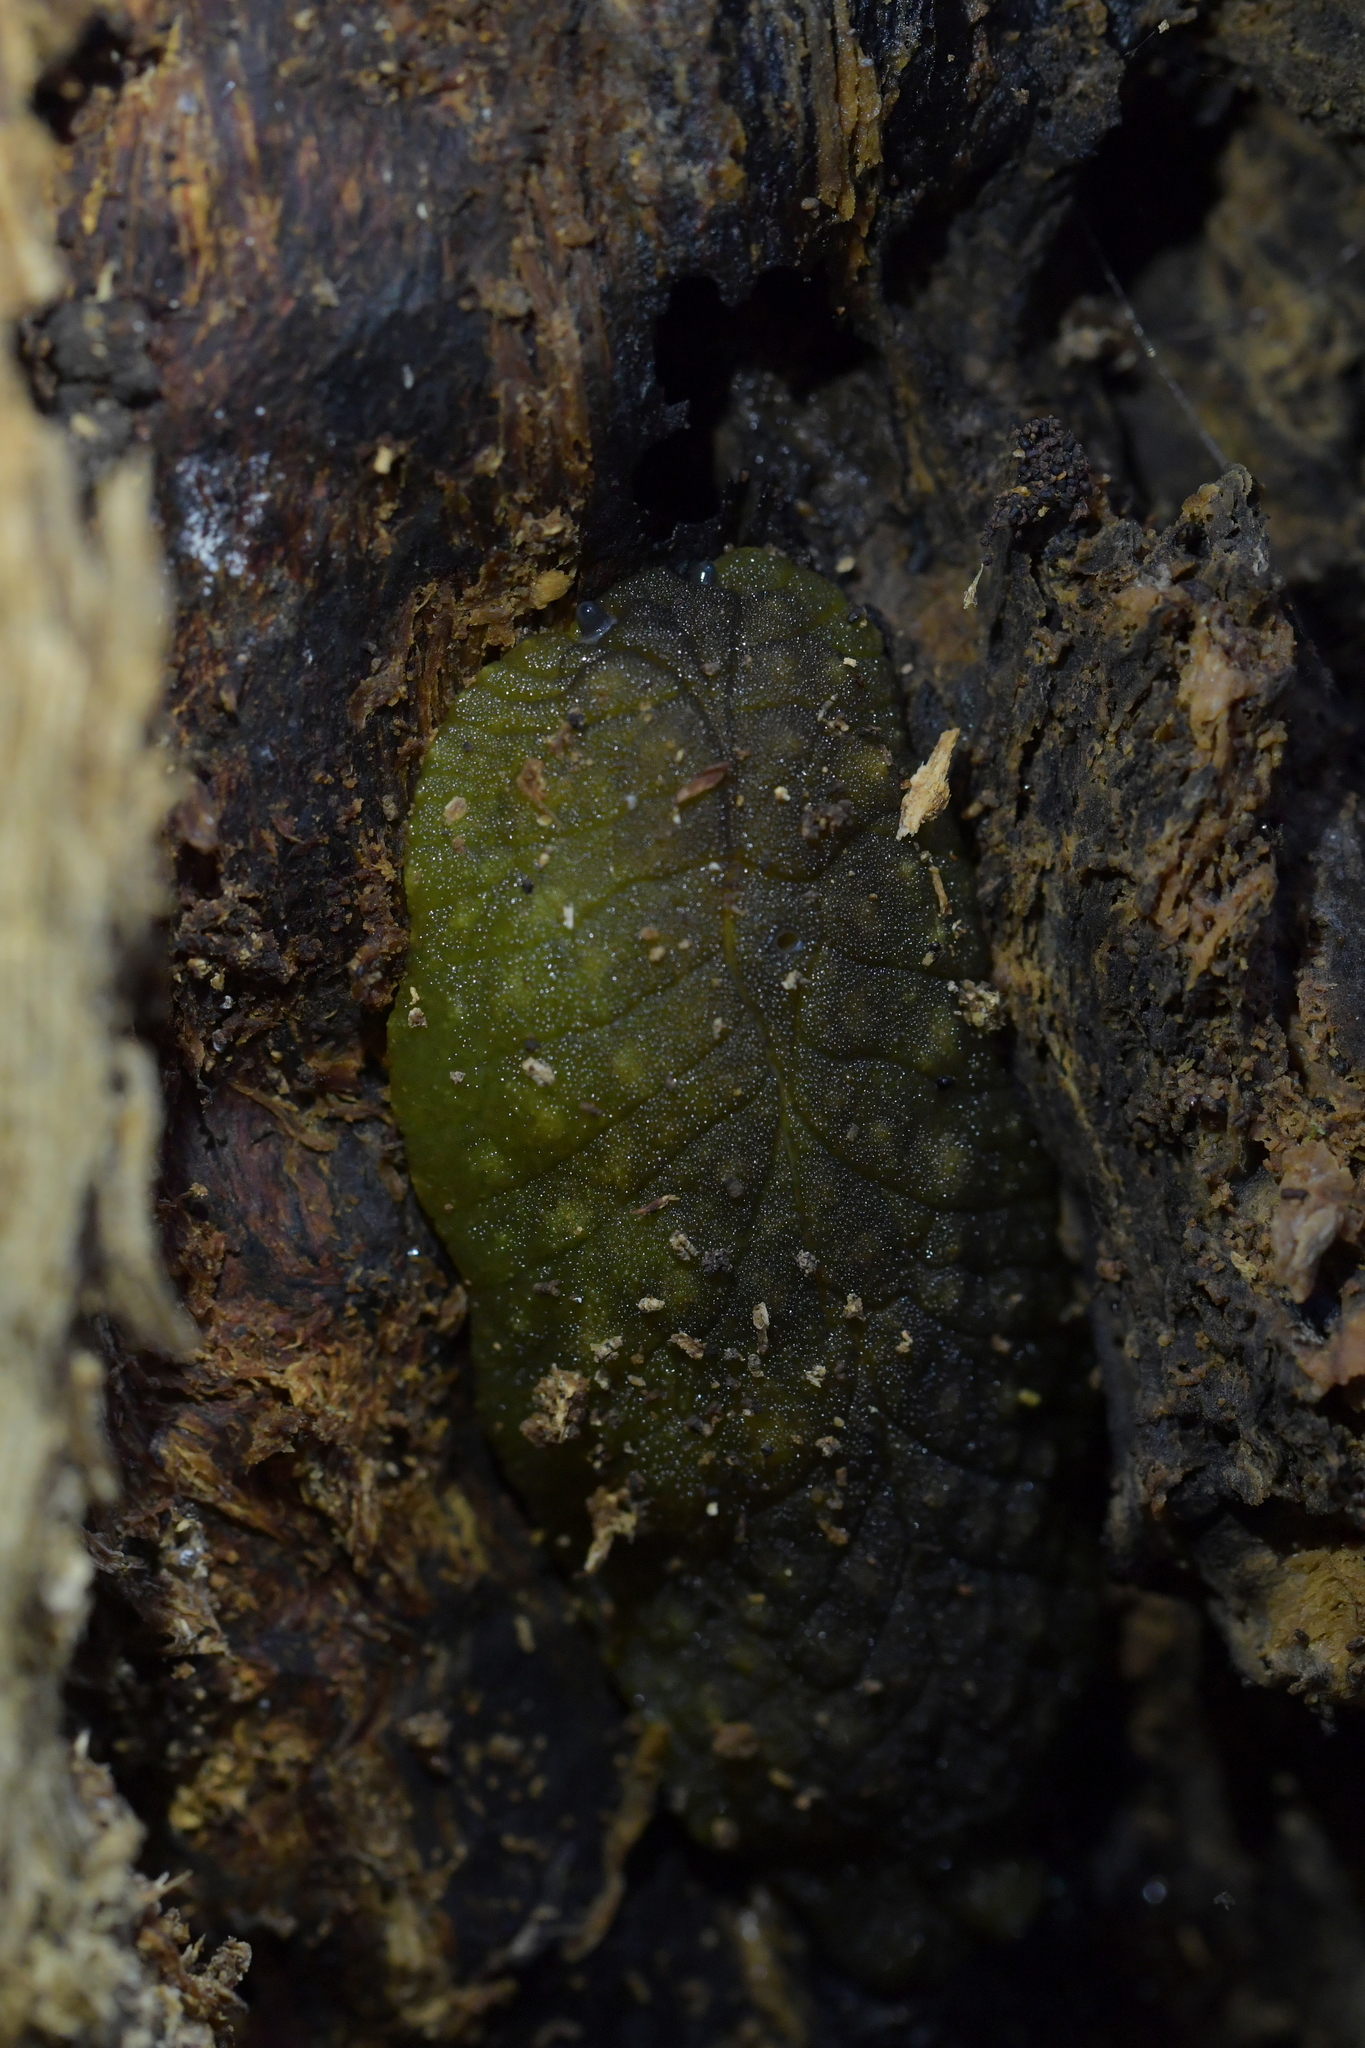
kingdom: Animalia
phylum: Mollusca
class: Gastropoda
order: Stylommatophora
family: Athoracophoridae
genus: Athoracophorus
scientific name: Athoracophorus papillatus
